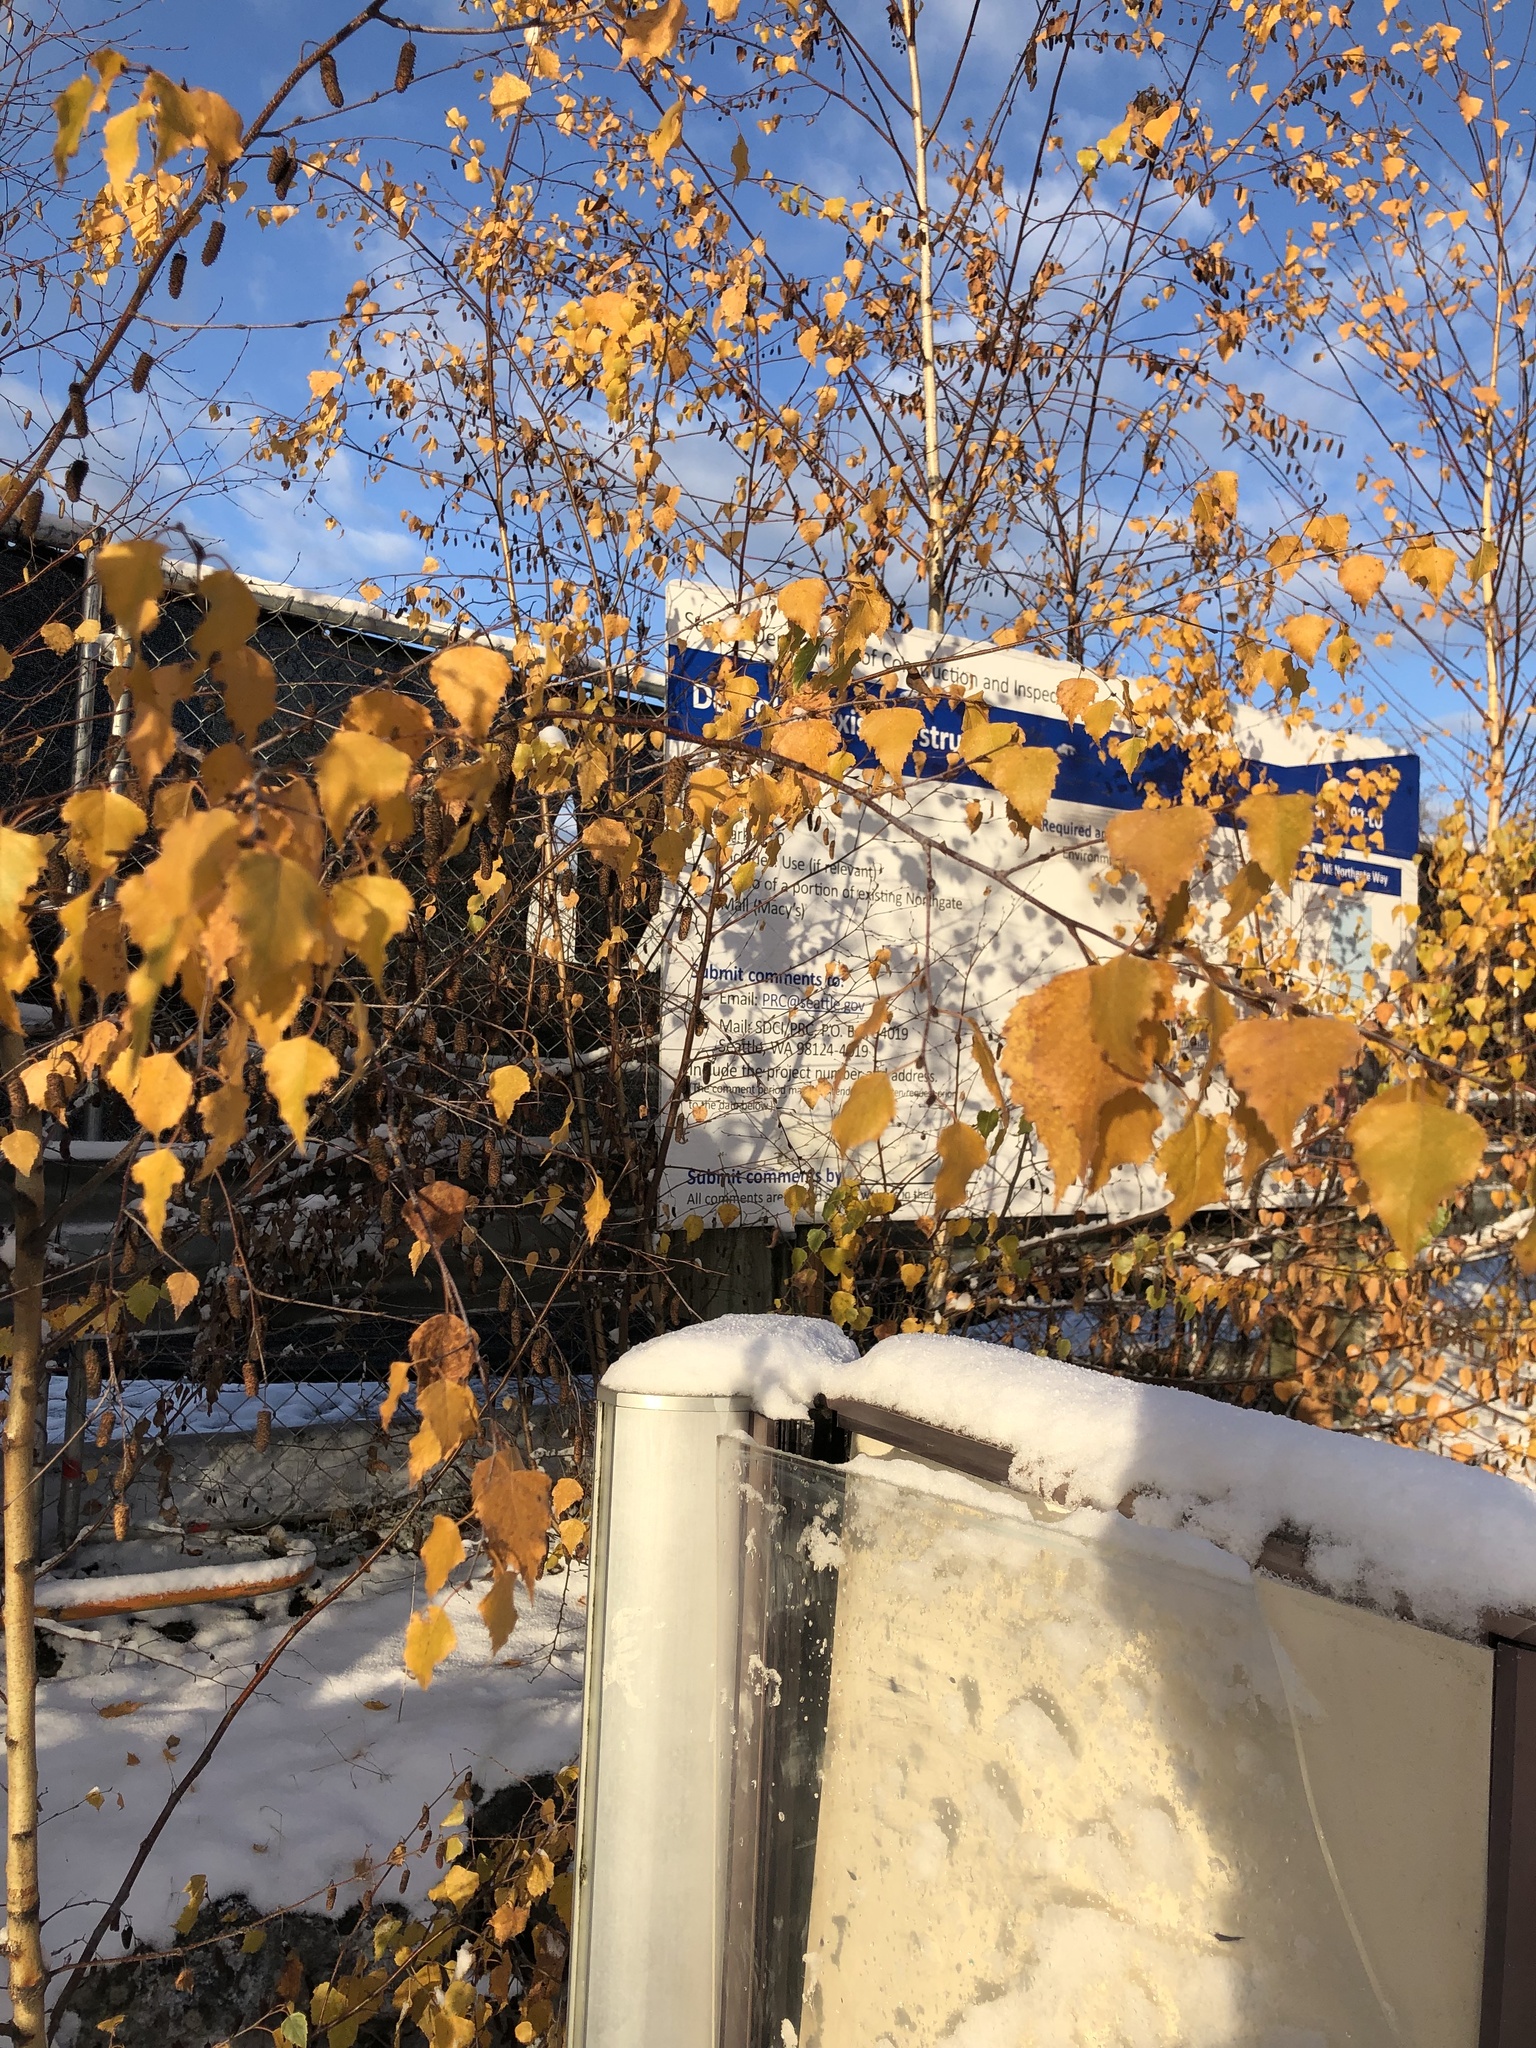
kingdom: Plantae
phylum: Tracheophyta
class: Magnoliopsida
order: Fagales
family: Betulaceae
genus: Betula
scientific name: Betula pendula
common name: Silver birch
